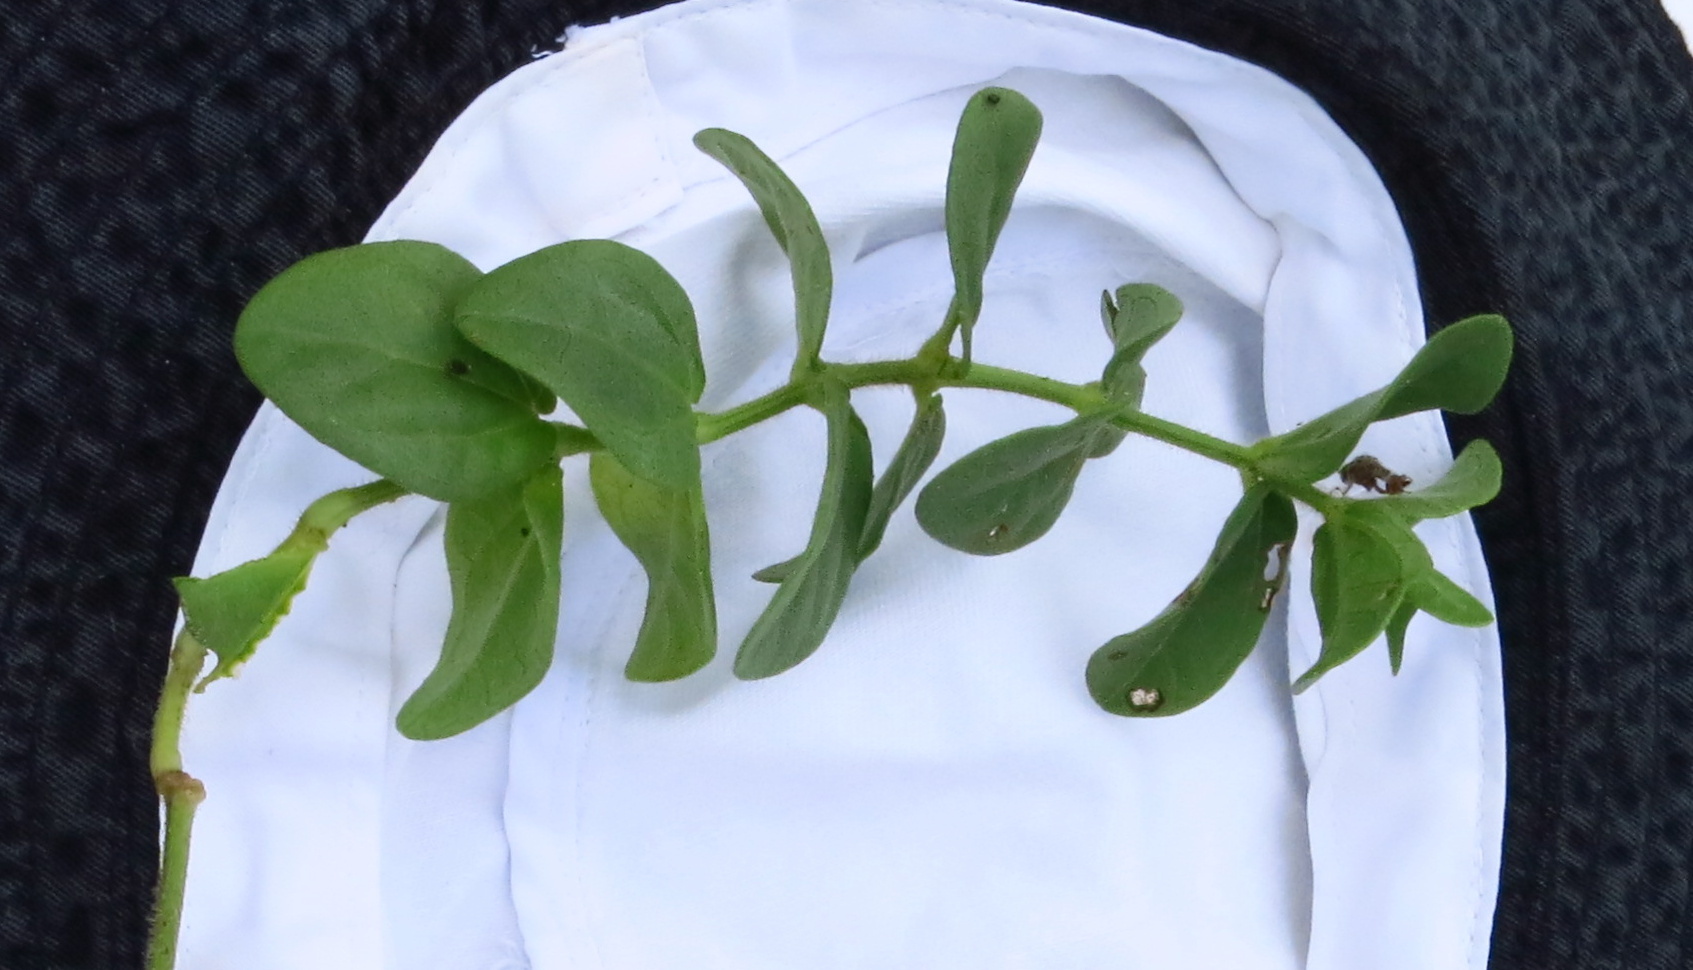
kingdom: Plantae
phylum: Tracheophyta
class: Magnoliopsida
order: Lamiales
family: Acanthaceae
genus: Thunbergia
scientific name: Thunbergia dregeana
